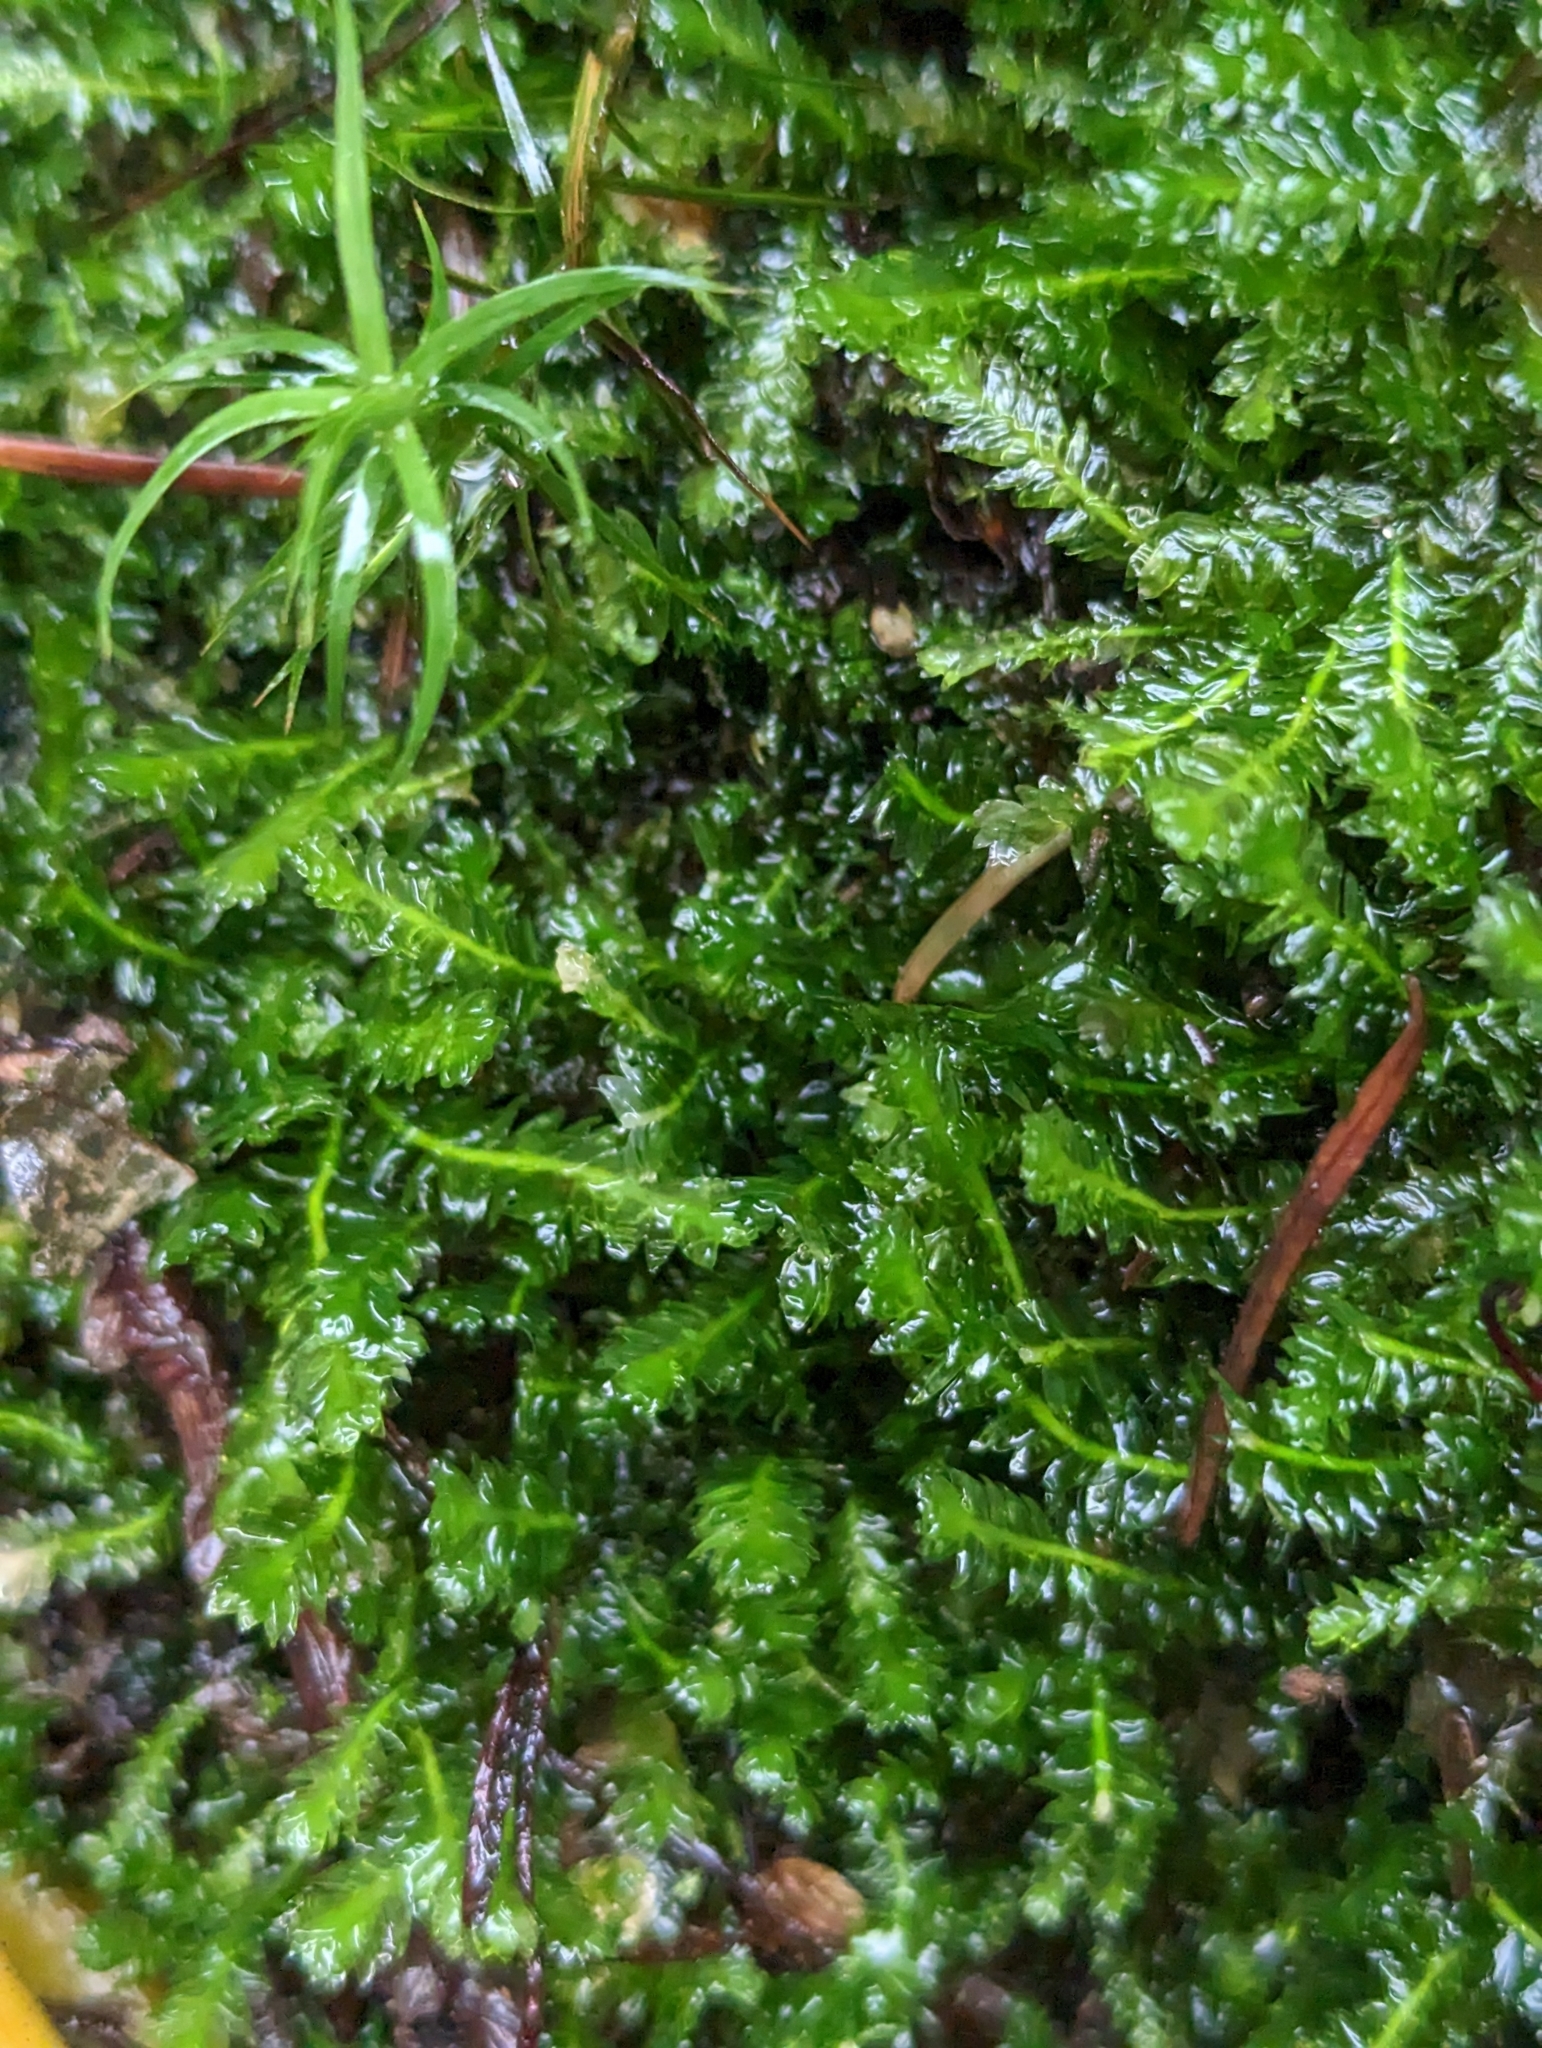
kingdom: Plantae
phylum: Bryophyta
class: Bryopsida
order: Hypnales
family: Plagiotheciaceae
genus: Plagiothecium
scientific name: Plagiothecium denticulatum
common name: Dented silk moss
